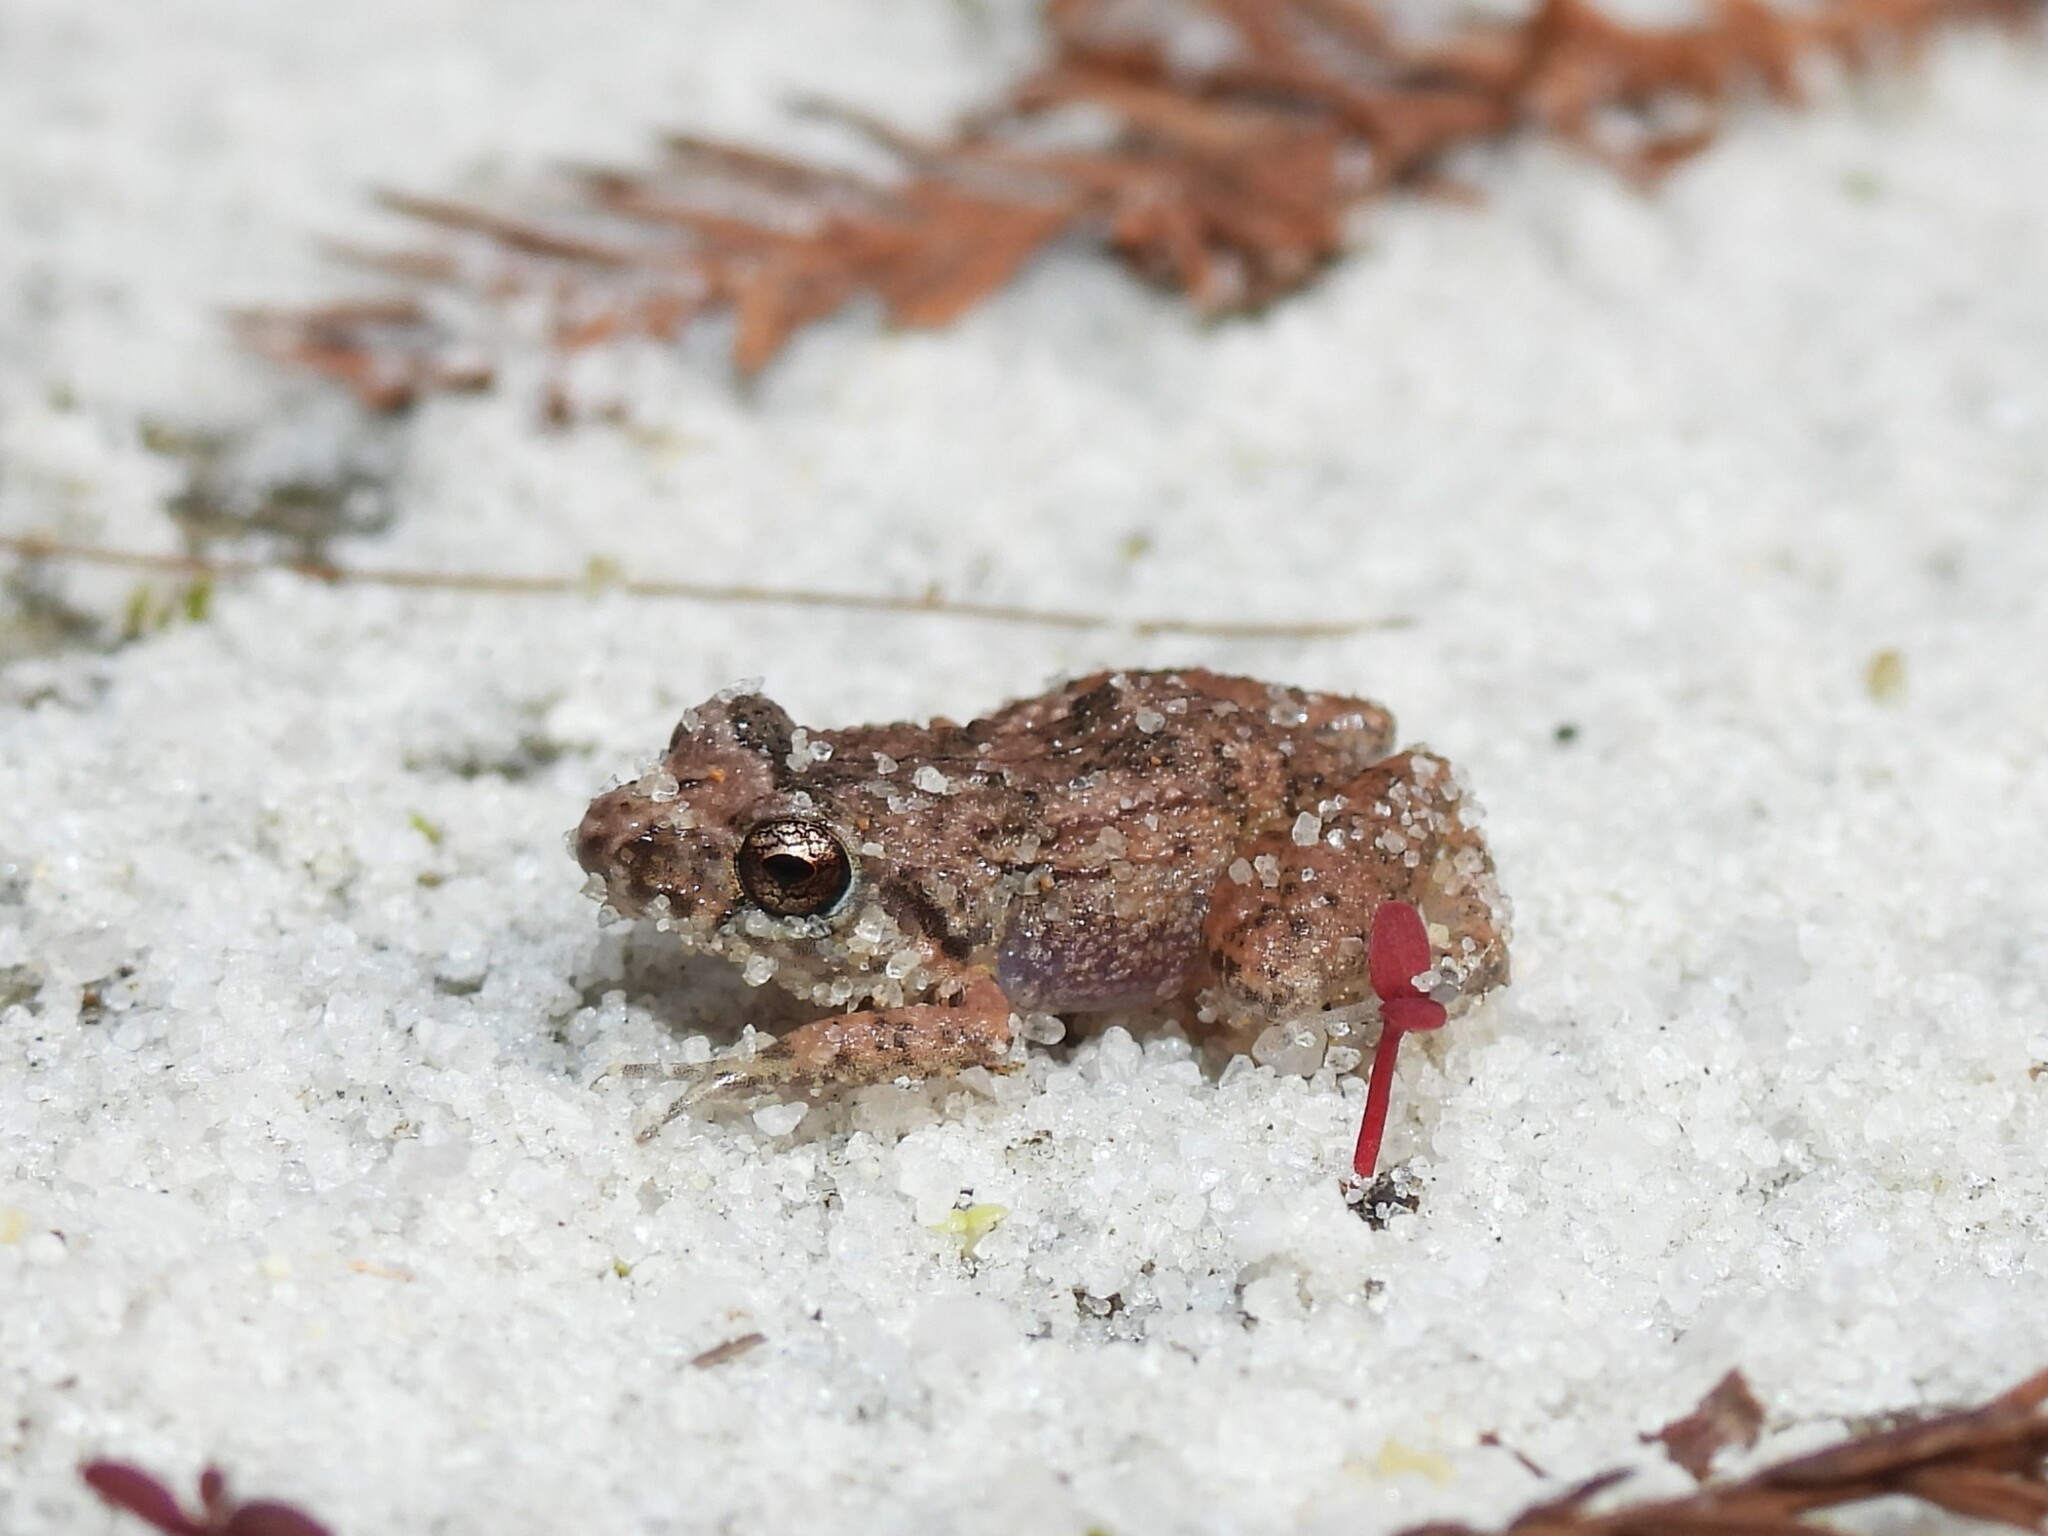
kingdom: Animalia
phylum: Chordata
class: Amphibia
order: Anura
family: Eleutherodactylidae
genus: Eleutherodactylus
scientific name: Eleutherodactylus planirostris
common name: Greenhouse frog
